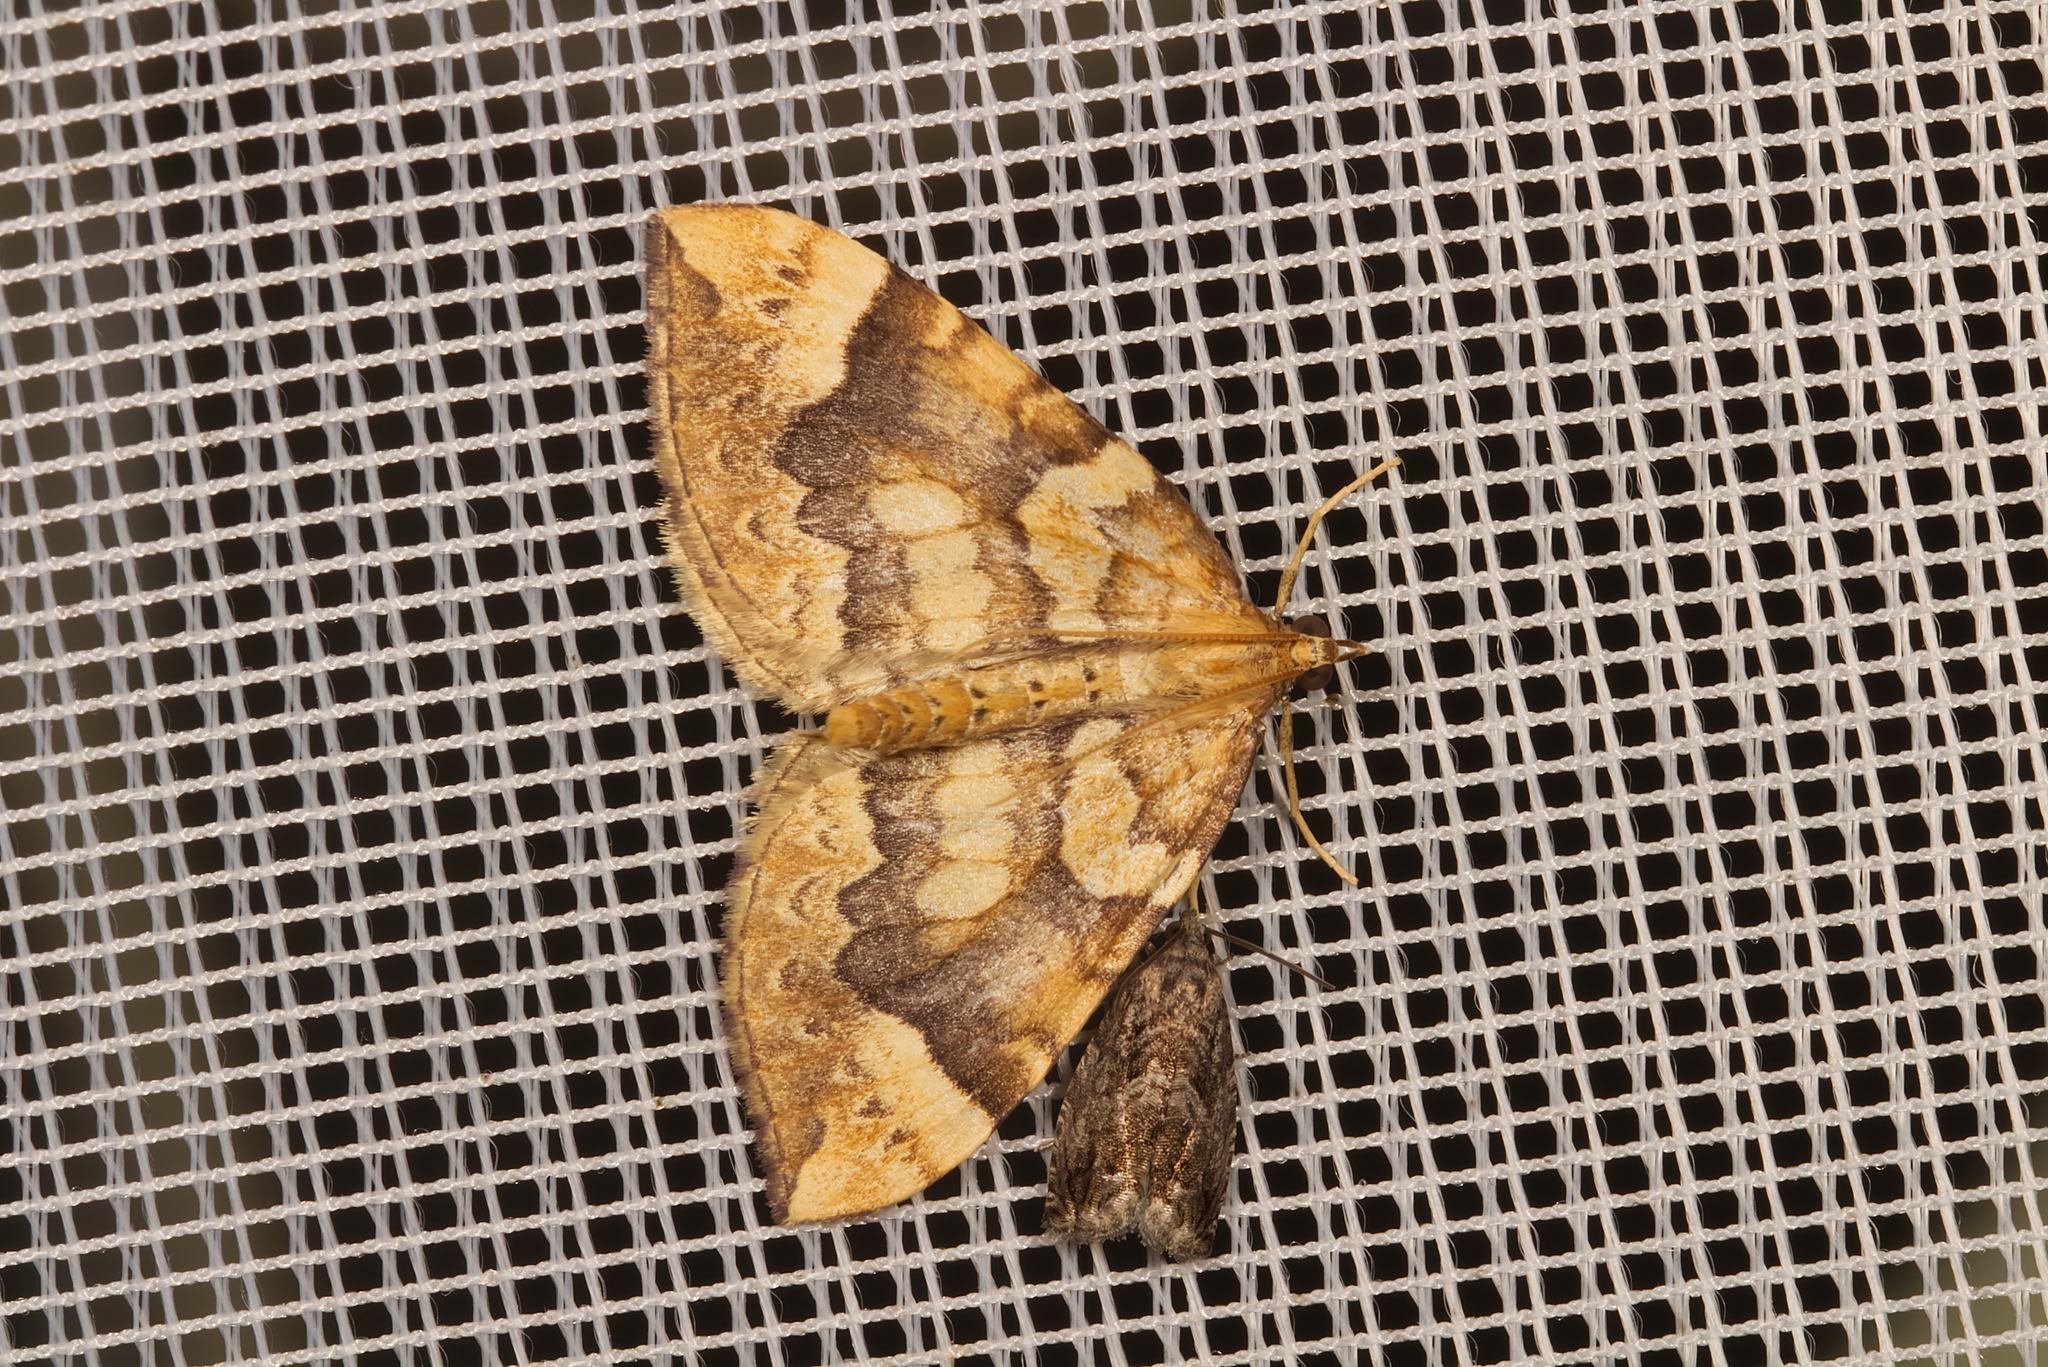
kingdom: Animalia
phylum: Arthropoda
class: Insecta
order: Lepidoptera
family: Geometridae
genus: Eulithis
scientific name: Eulithis populata
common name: Northern spinach
